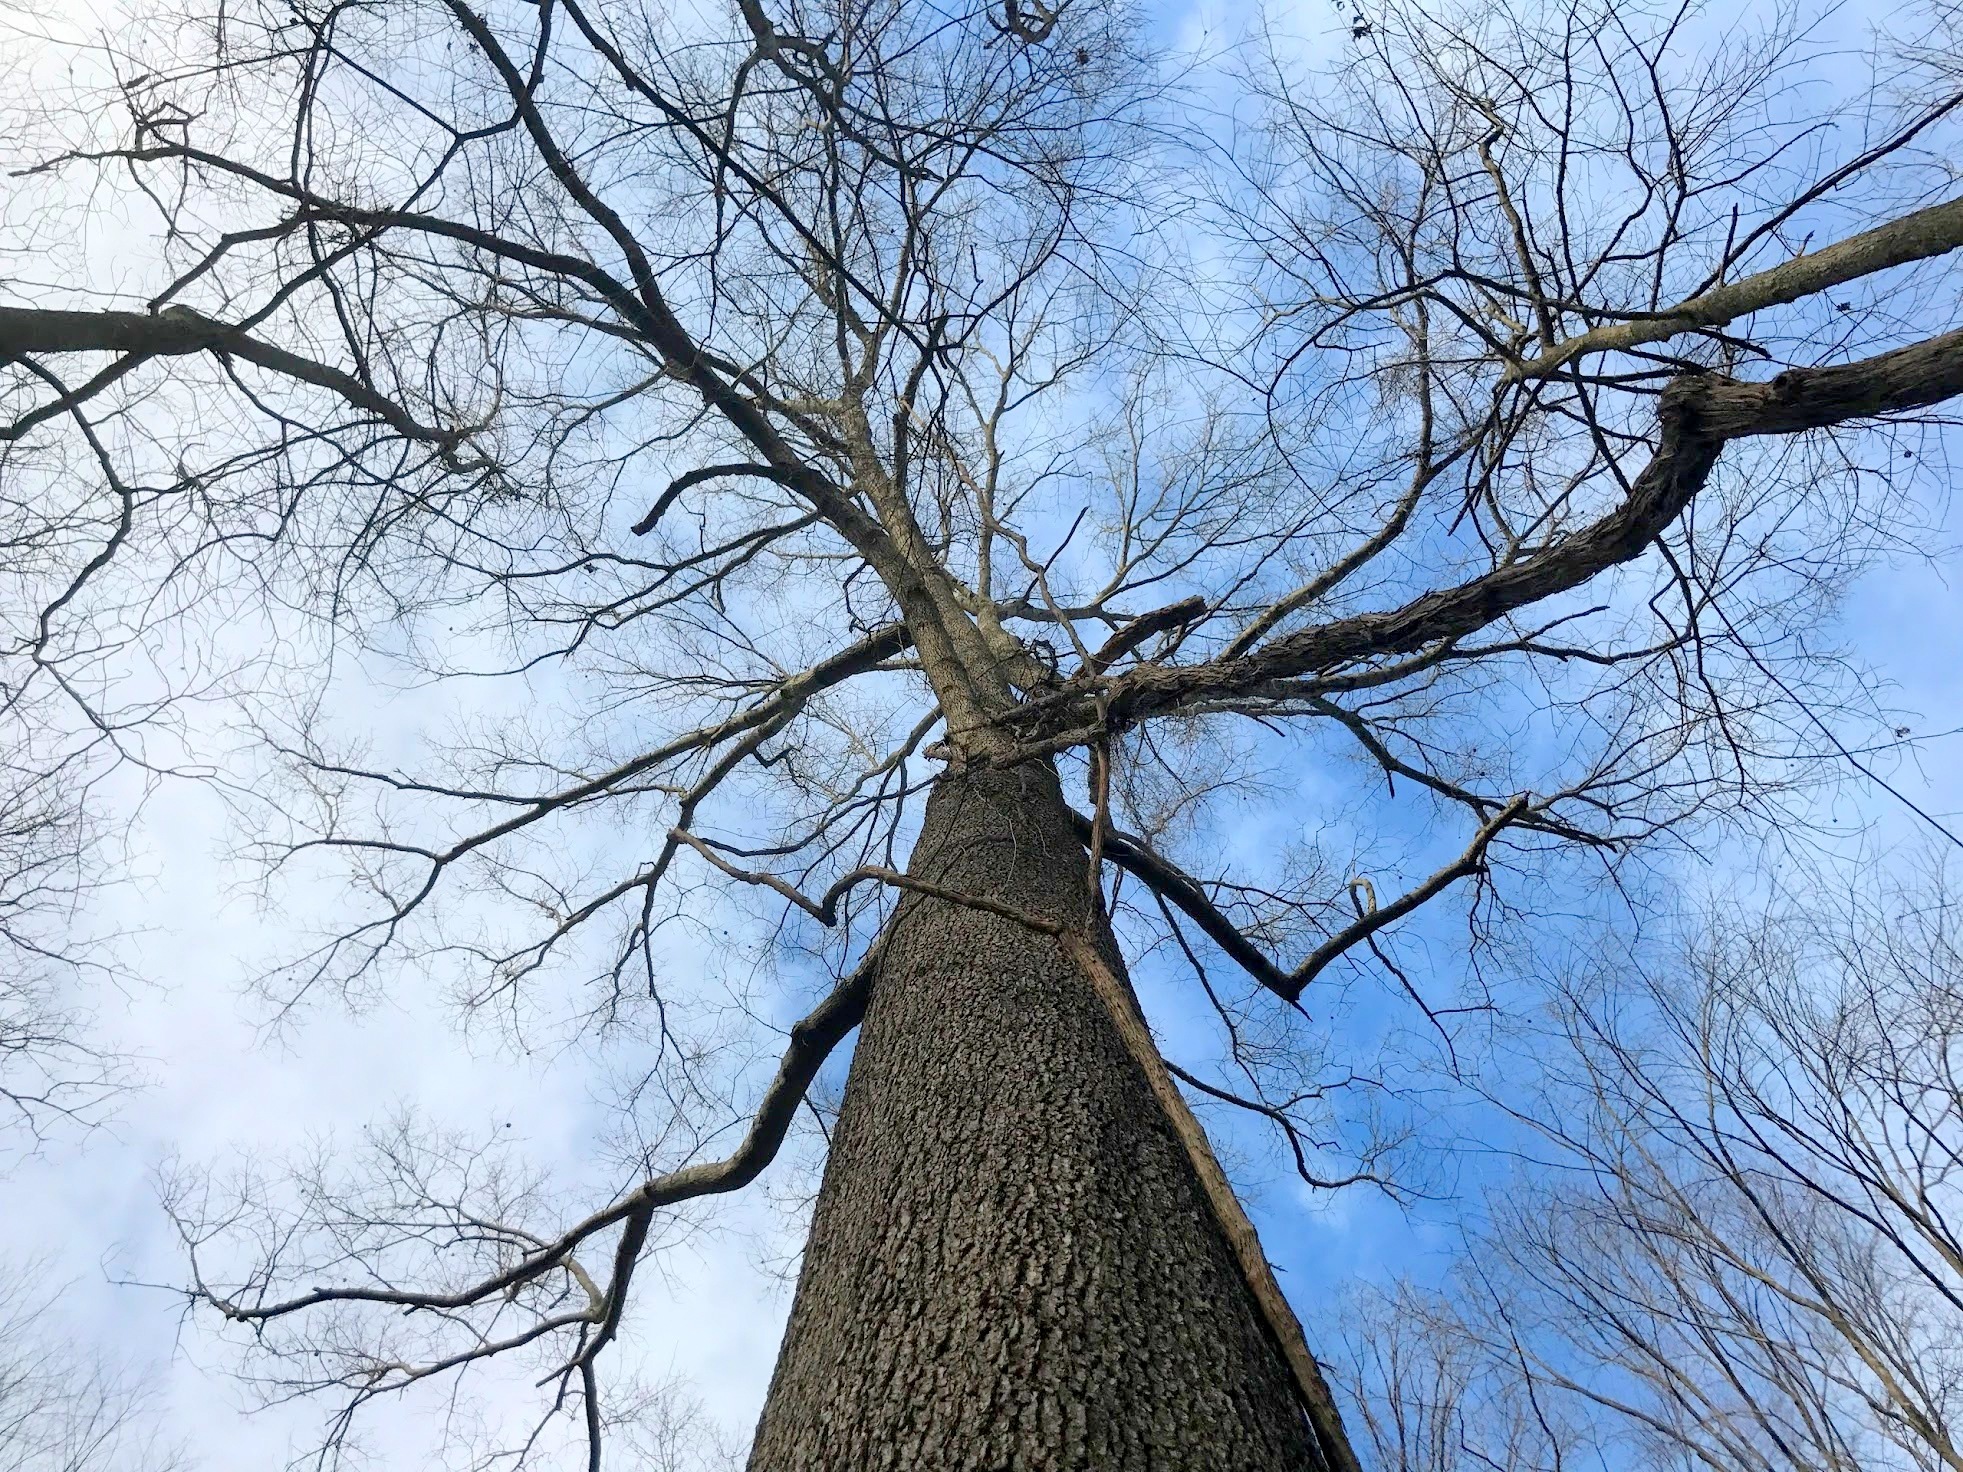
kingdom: Plantae
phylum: Tracheophyta
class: Magnoliopsida
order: Fagales
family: Fagaceae
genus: Quercus
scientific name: Quercus pagoda
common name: Cherrybark oak
